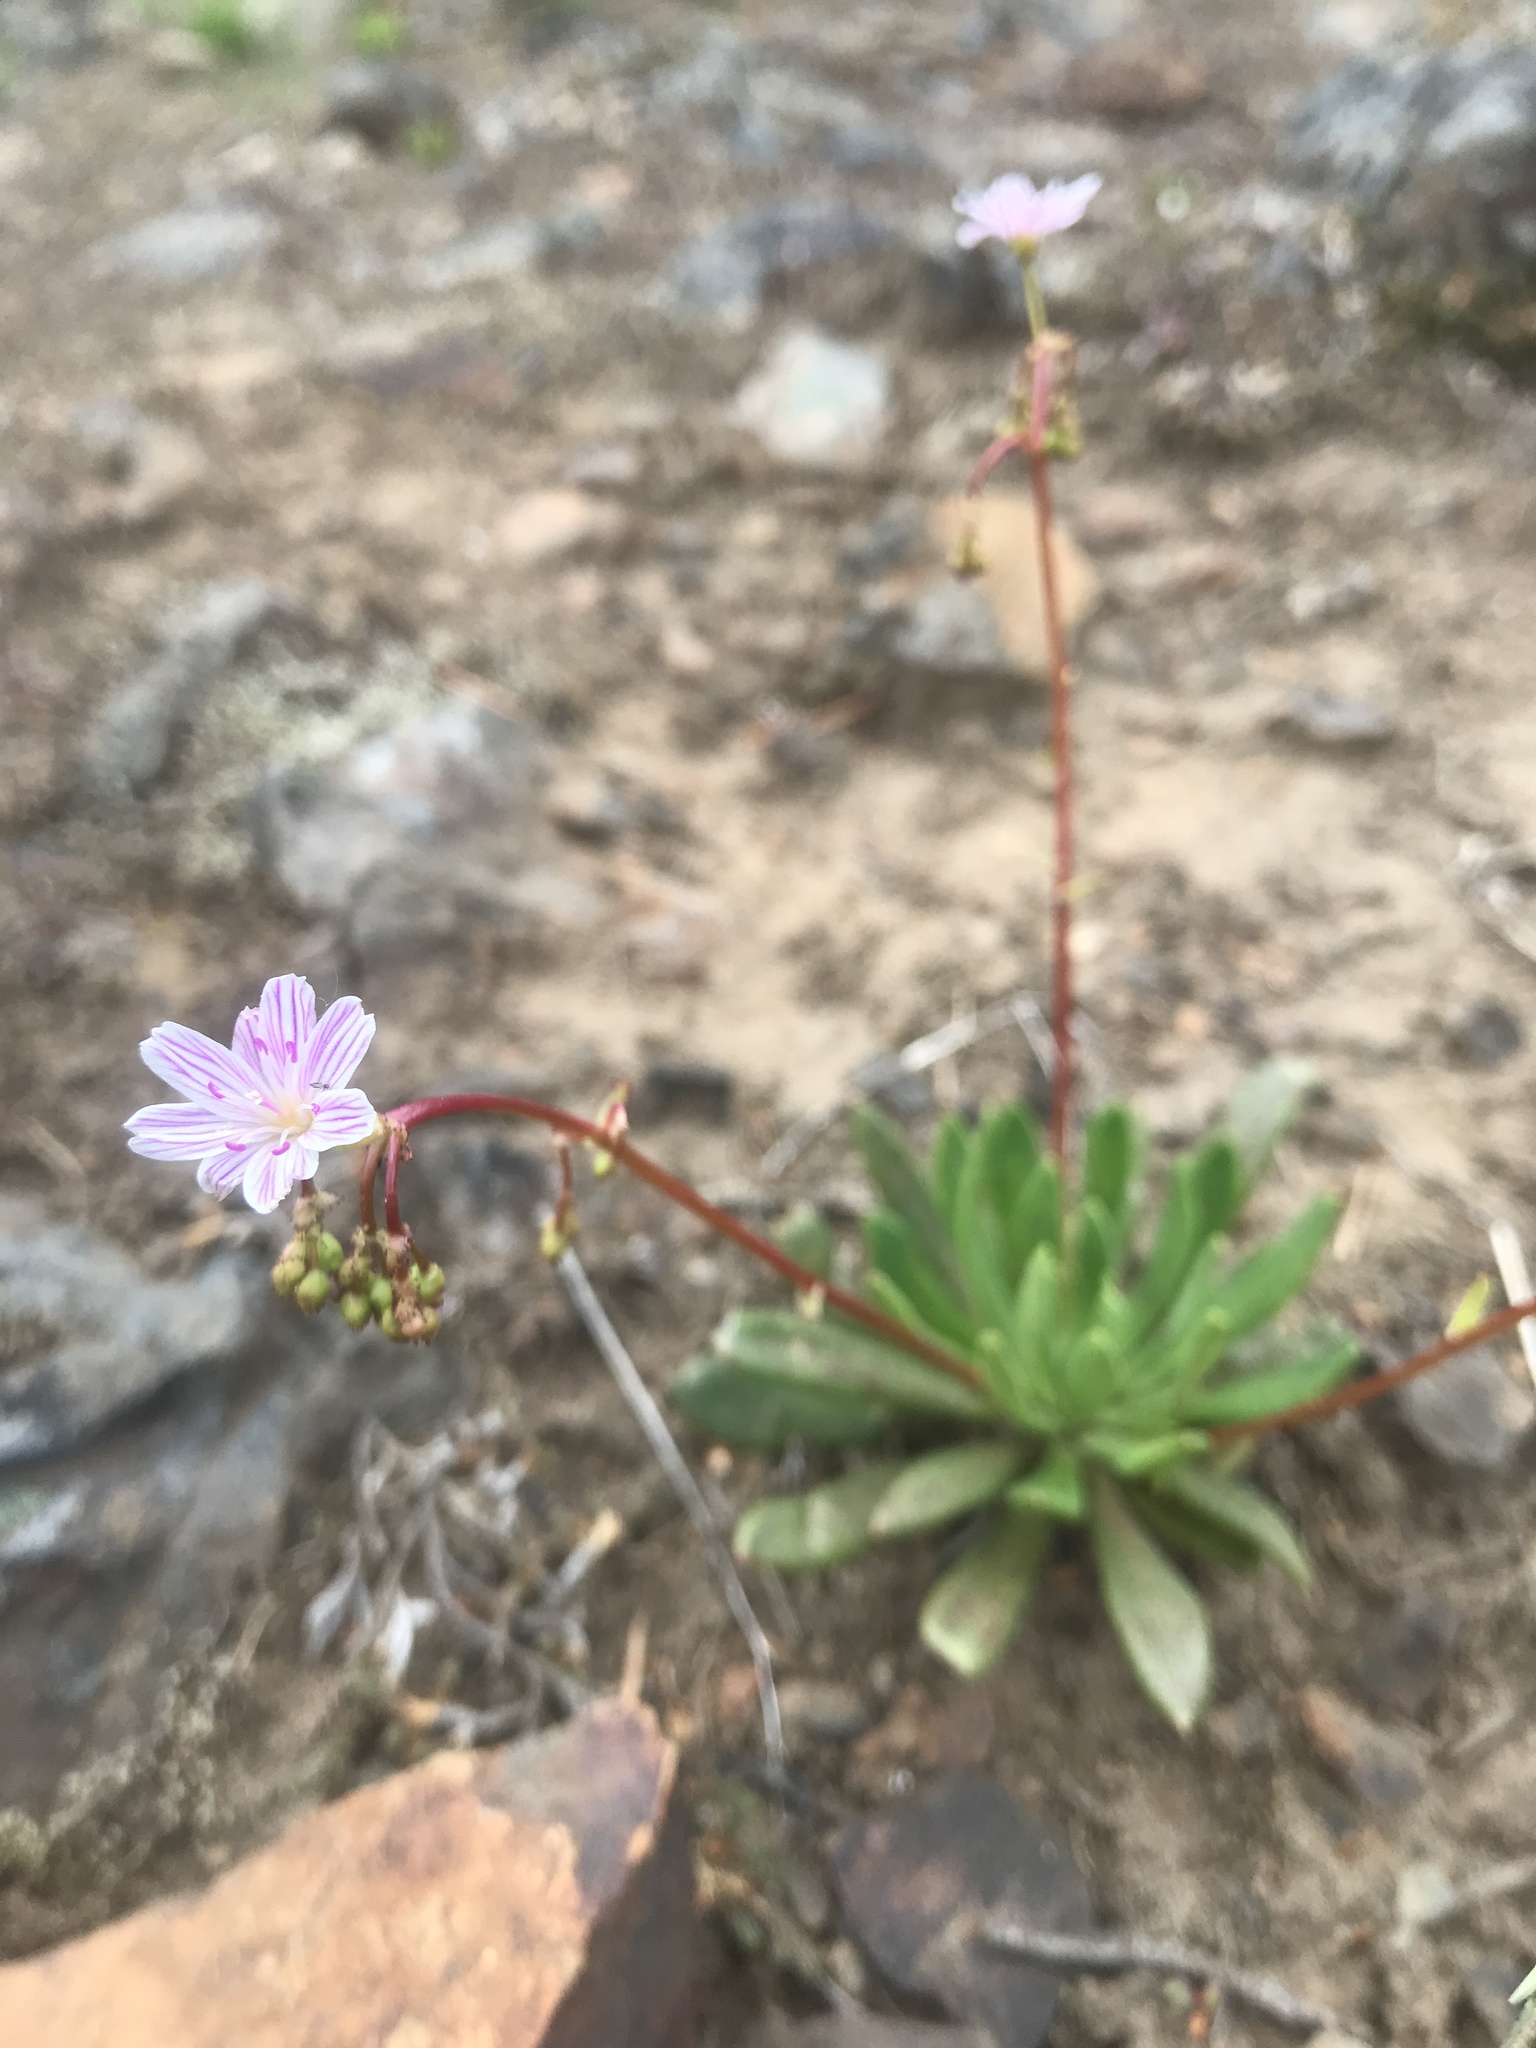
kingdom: Plantae
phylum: Tracheophyta
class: Magnoliopsida
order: Caryophyllales
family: Montiaceae
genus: Lewisia
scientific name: Lewisia columbiana
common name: Columbia lewisia
